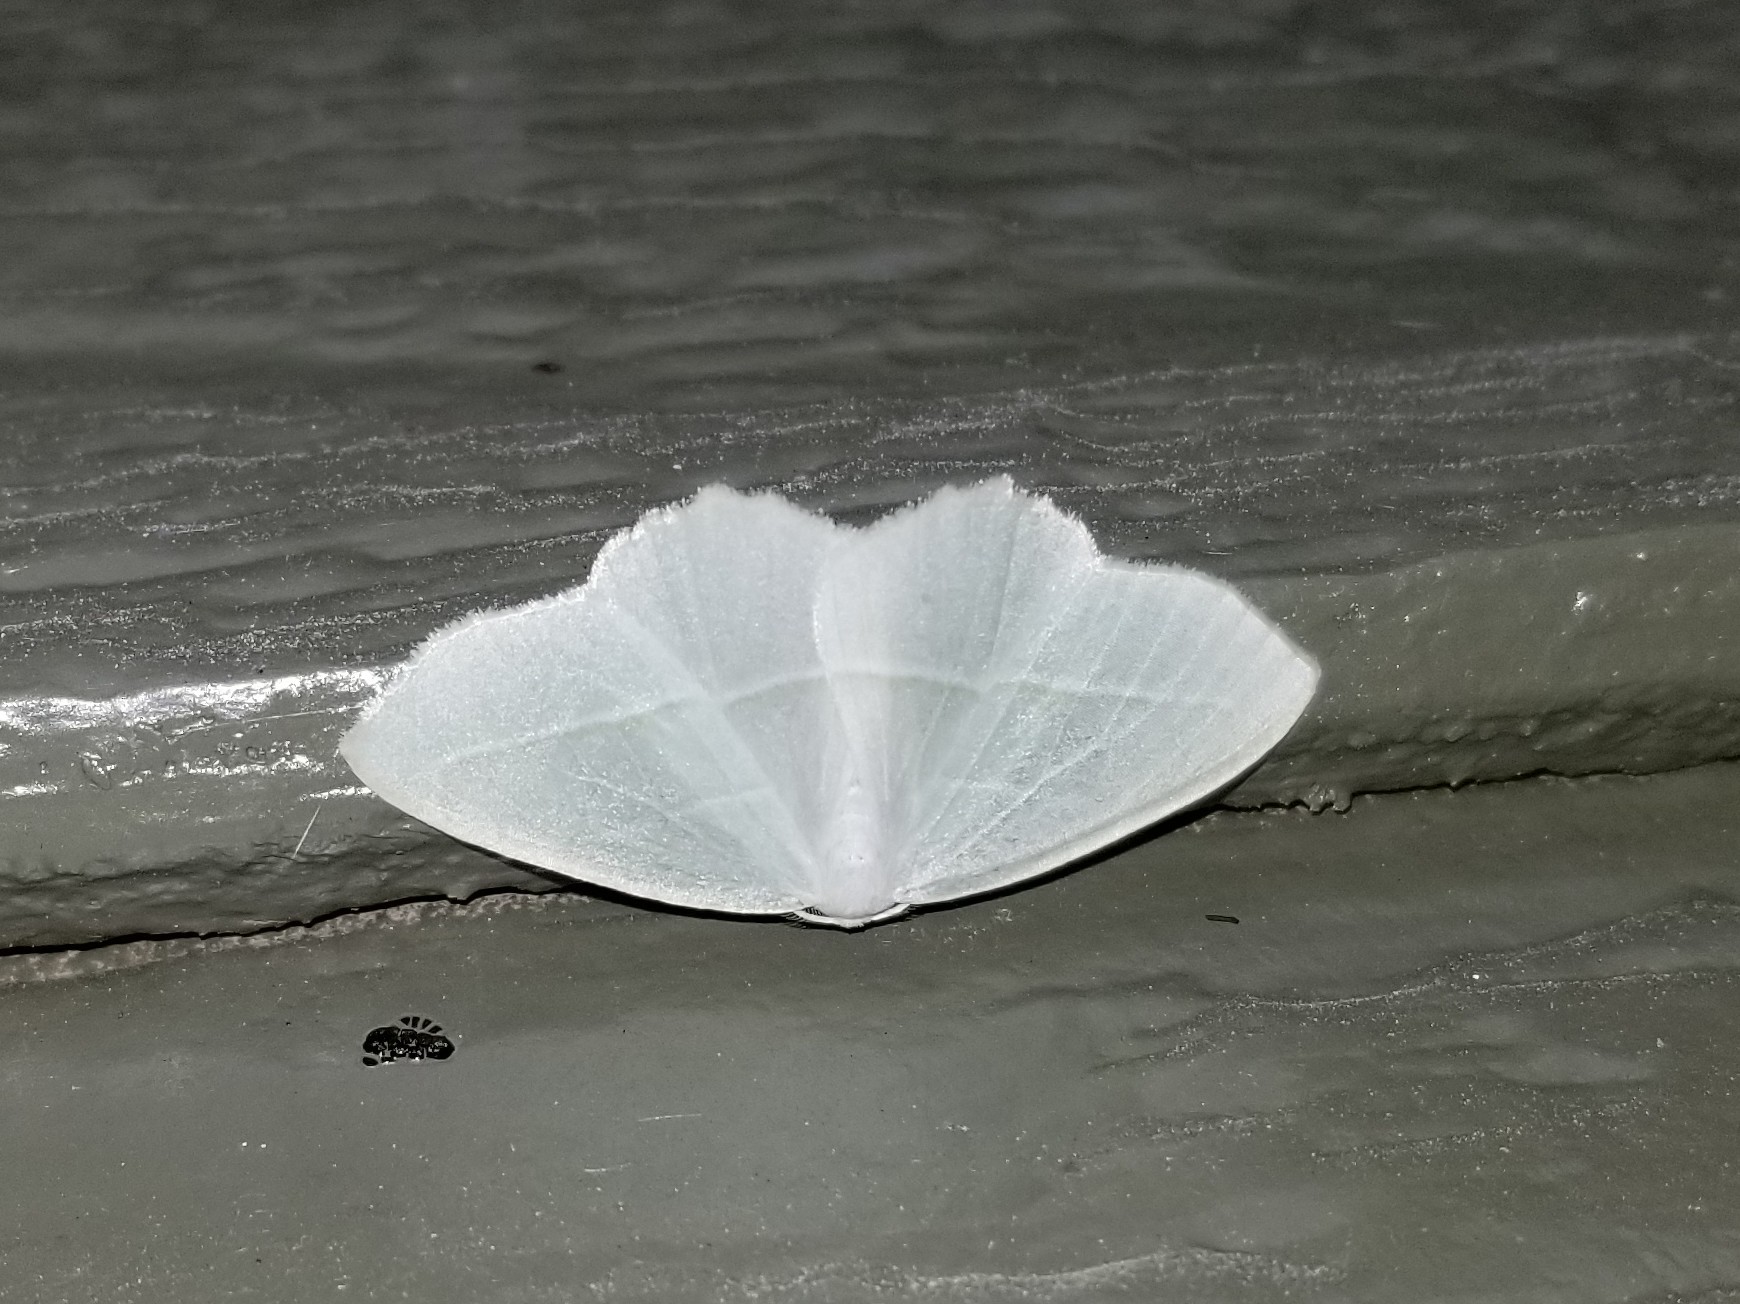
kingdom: Animalia
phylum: Arthropoda
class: Insecta
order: Lepidoptera
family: Geometridae
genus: Campaea
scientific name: Campaea perlata
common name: Fringed looper
